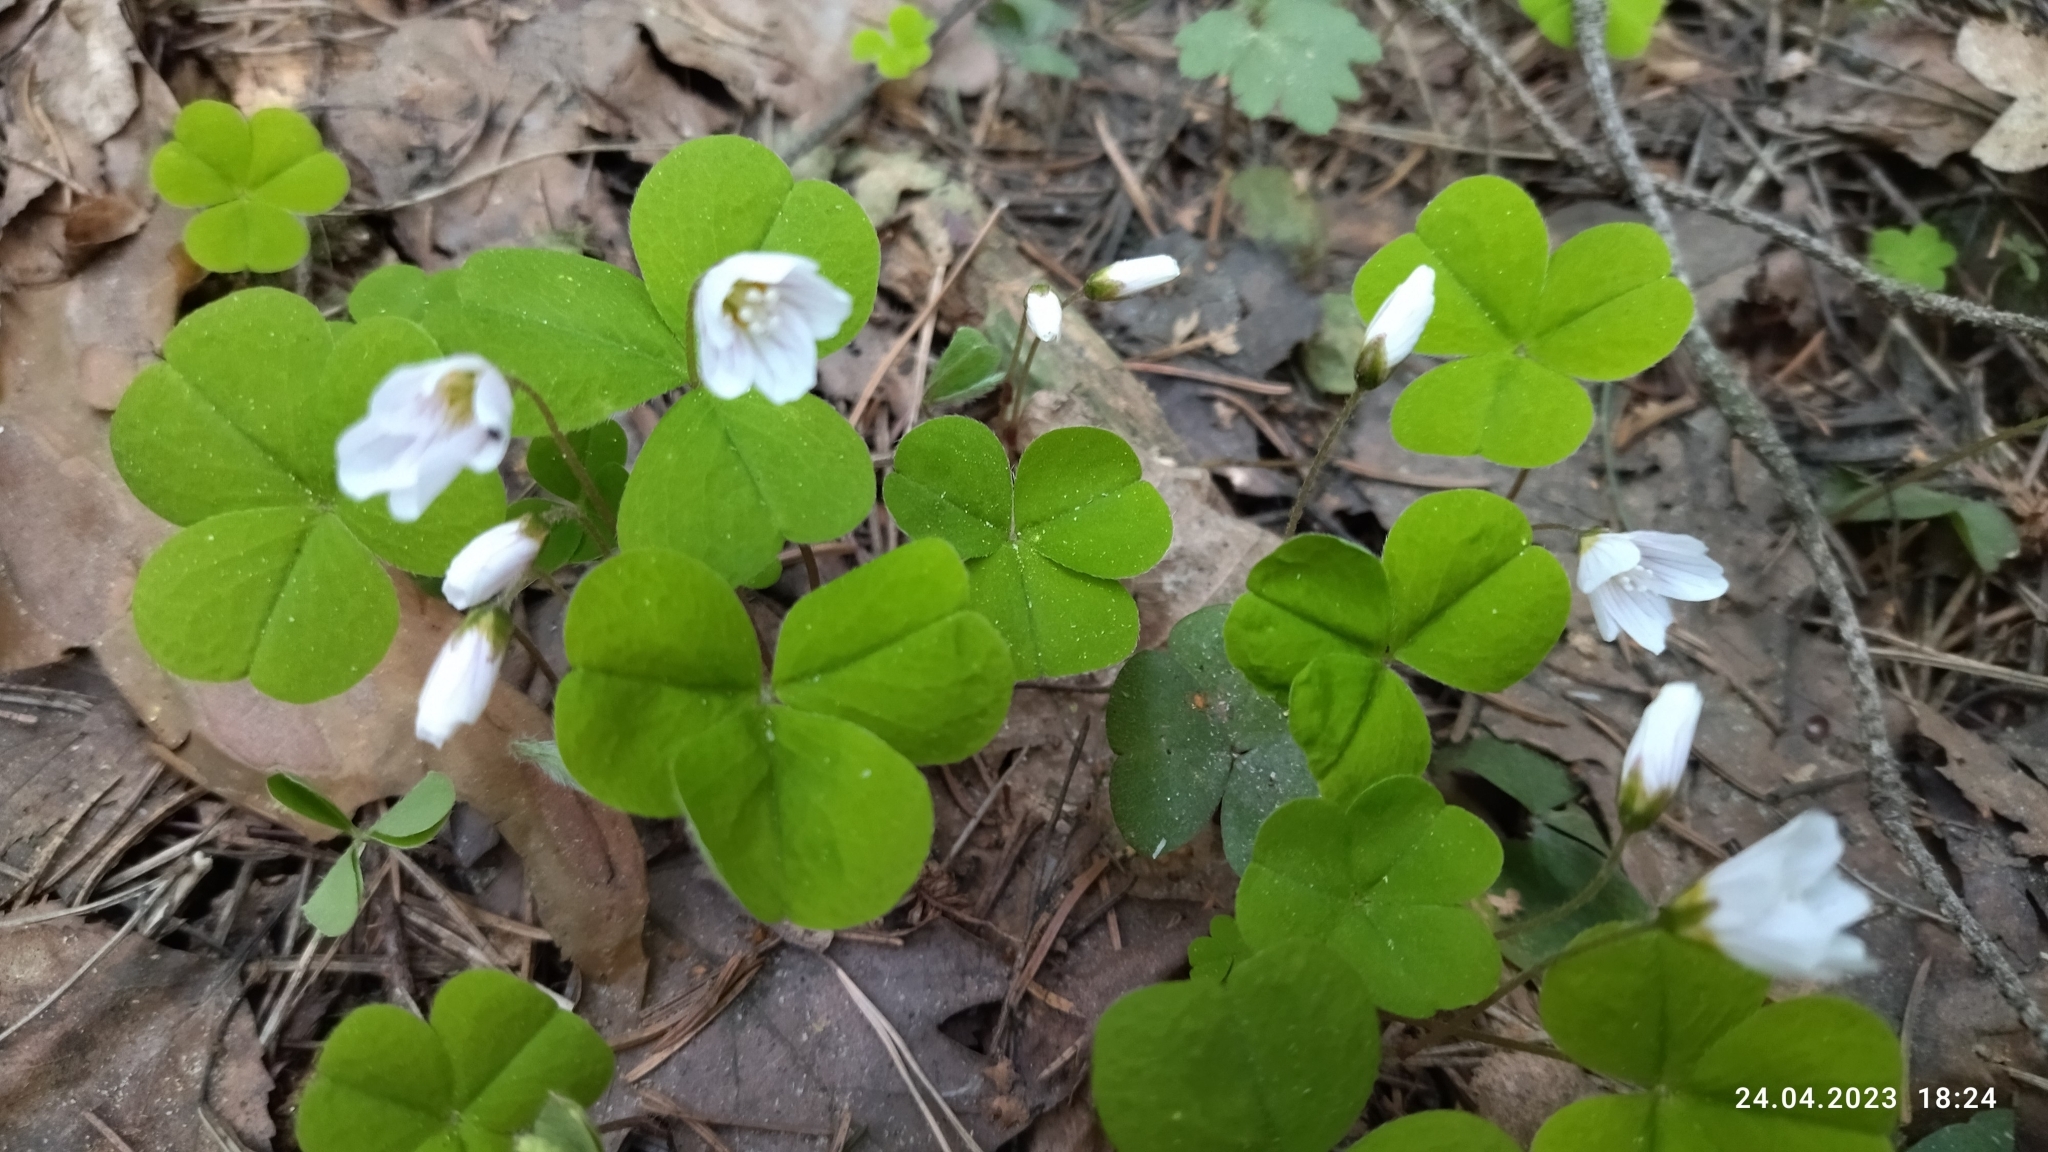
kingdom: Plantae
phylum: Tracheophyta
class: Magnoliopsida
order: Oxalidales
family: Oxalidaceae
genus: Oxalis
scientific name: Oxalis acetosella
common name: Wood-sorrel
